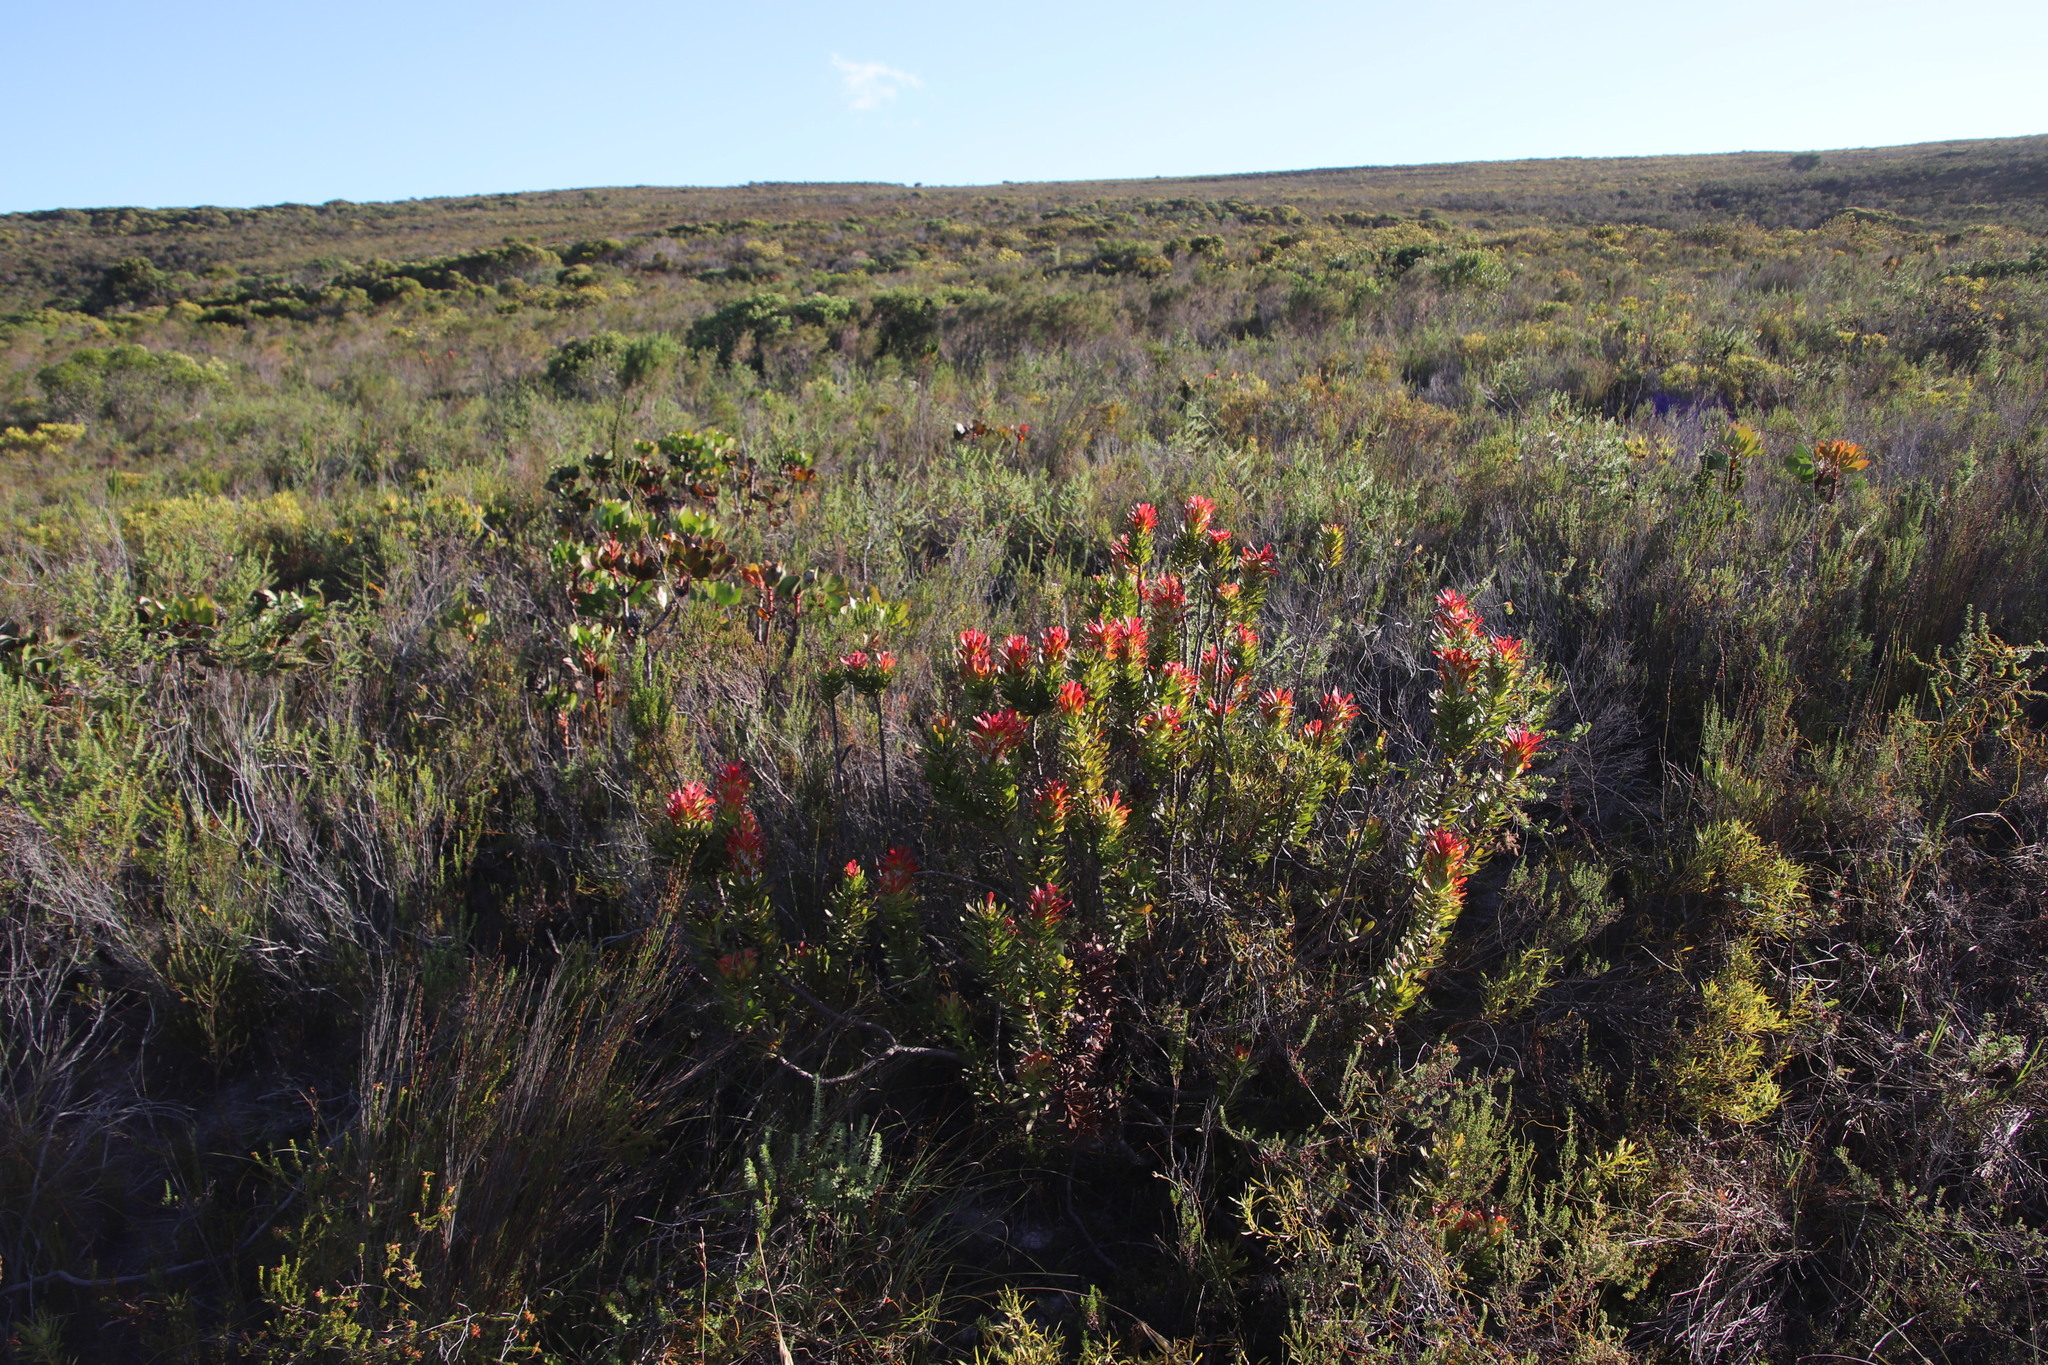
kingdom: Plantae
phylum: Tracheophyta
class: Magnoliopsida
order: Proteales
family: Proteaceae
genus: Mimetes
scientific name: Mimetes cucullatus
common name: Common pagoda
